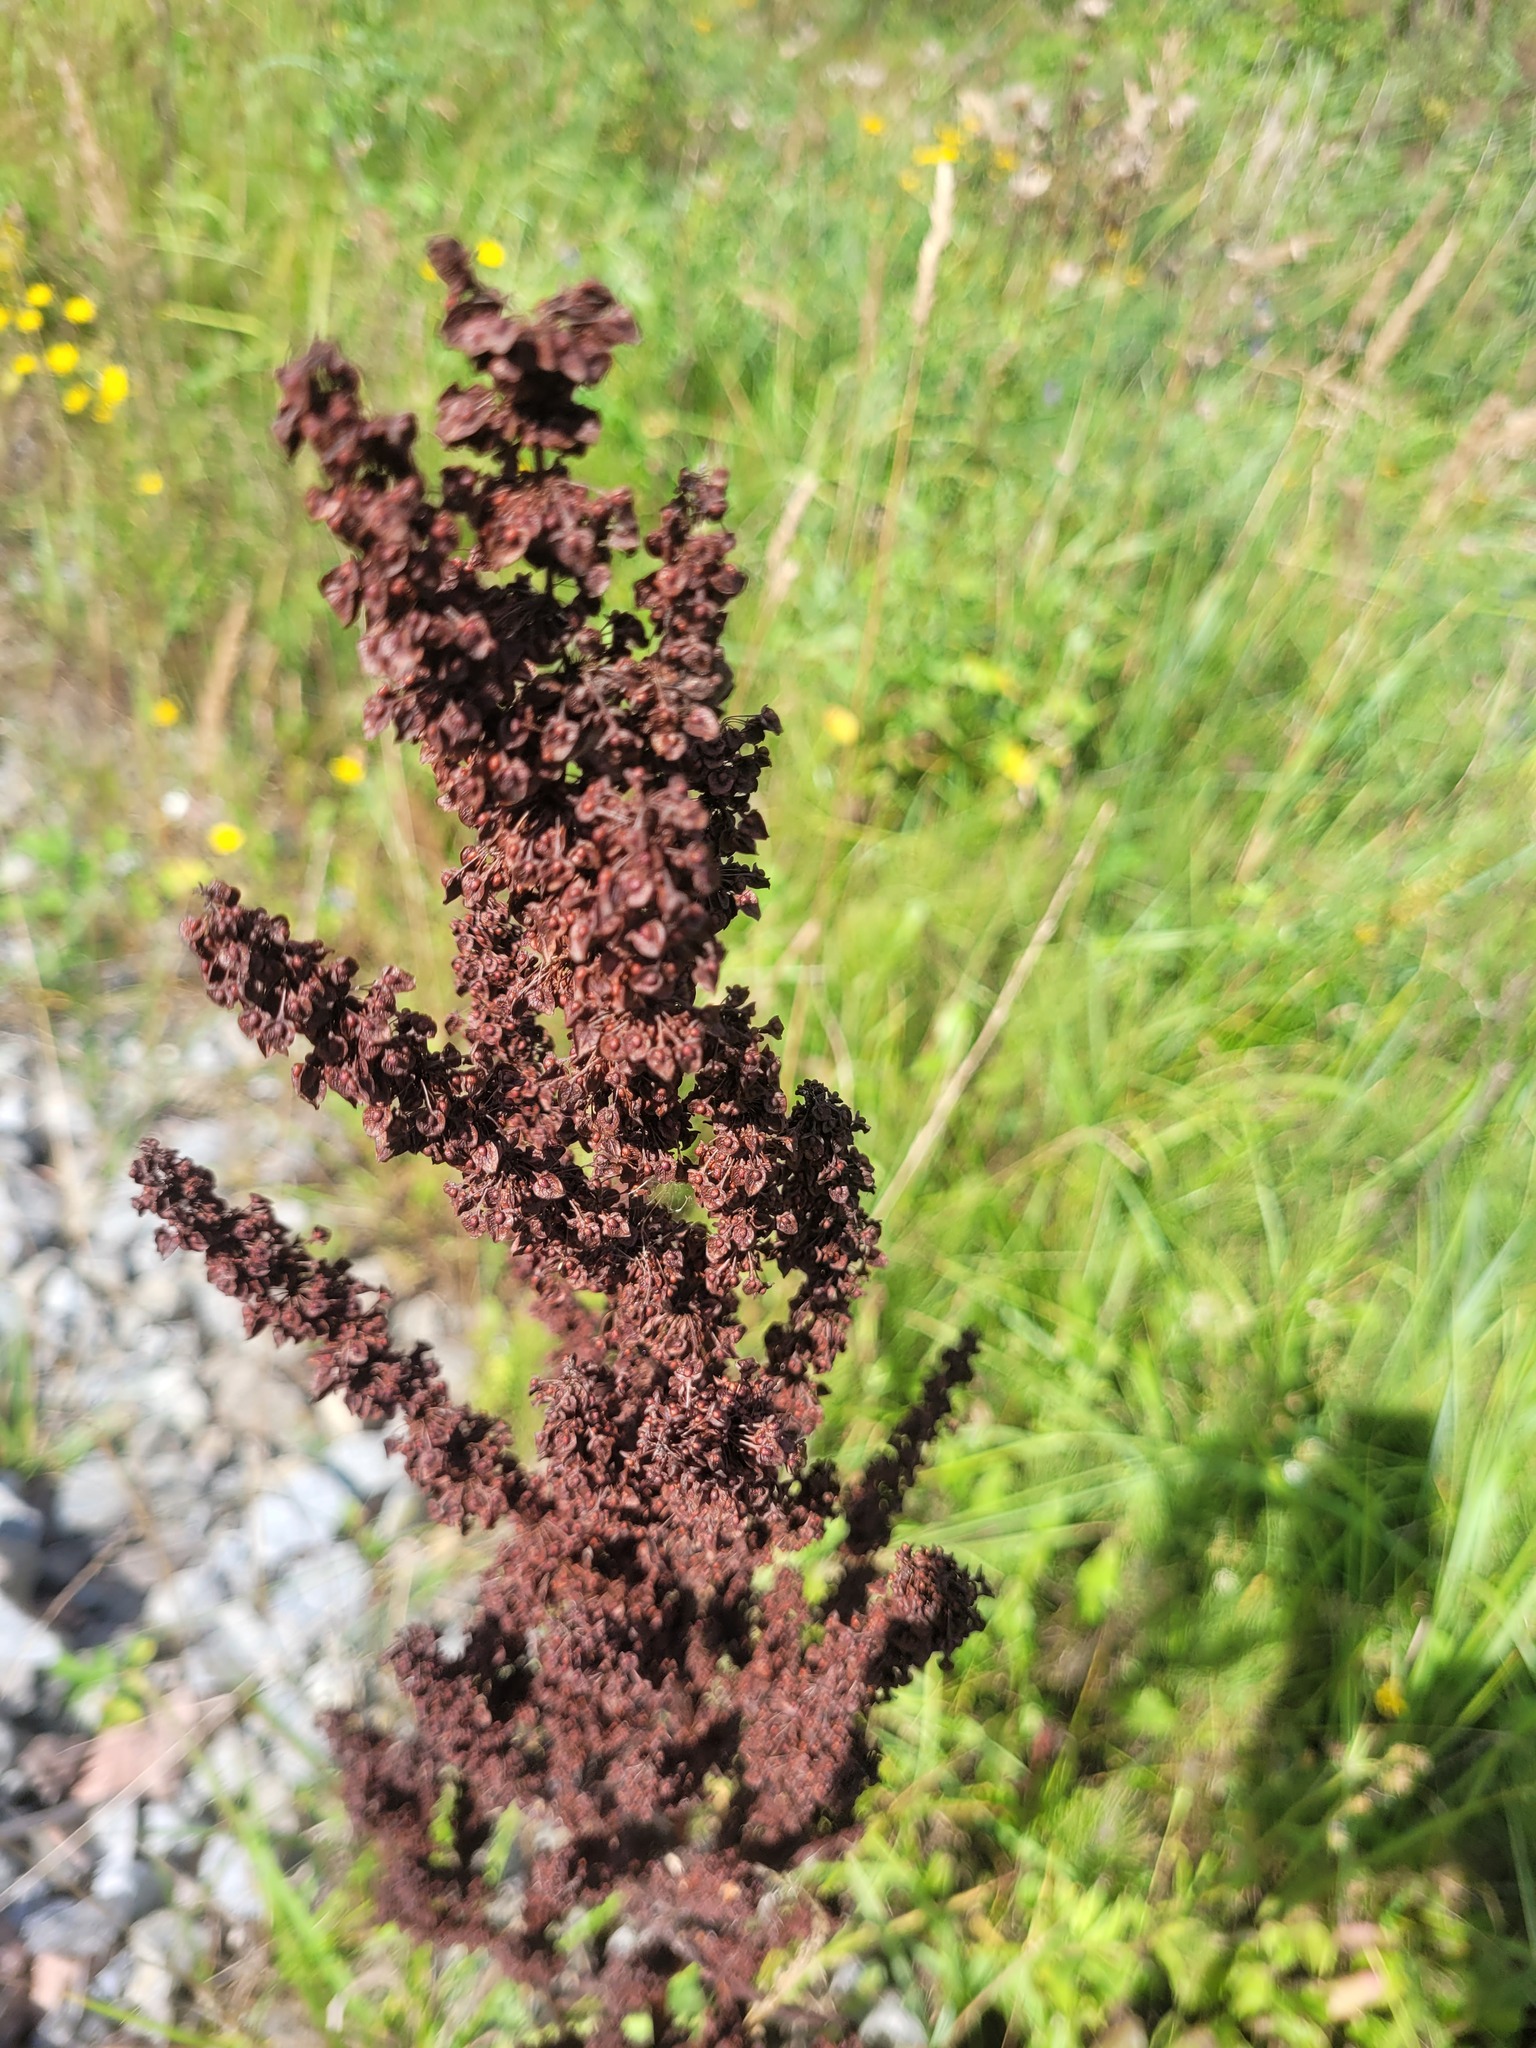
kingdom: Plantae
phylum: Tracheophyta
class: Magnoliopsida
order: Caryophyllales
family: Polygonaceae
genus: Rumex
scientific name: Rumex crispus
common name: Curled dock
